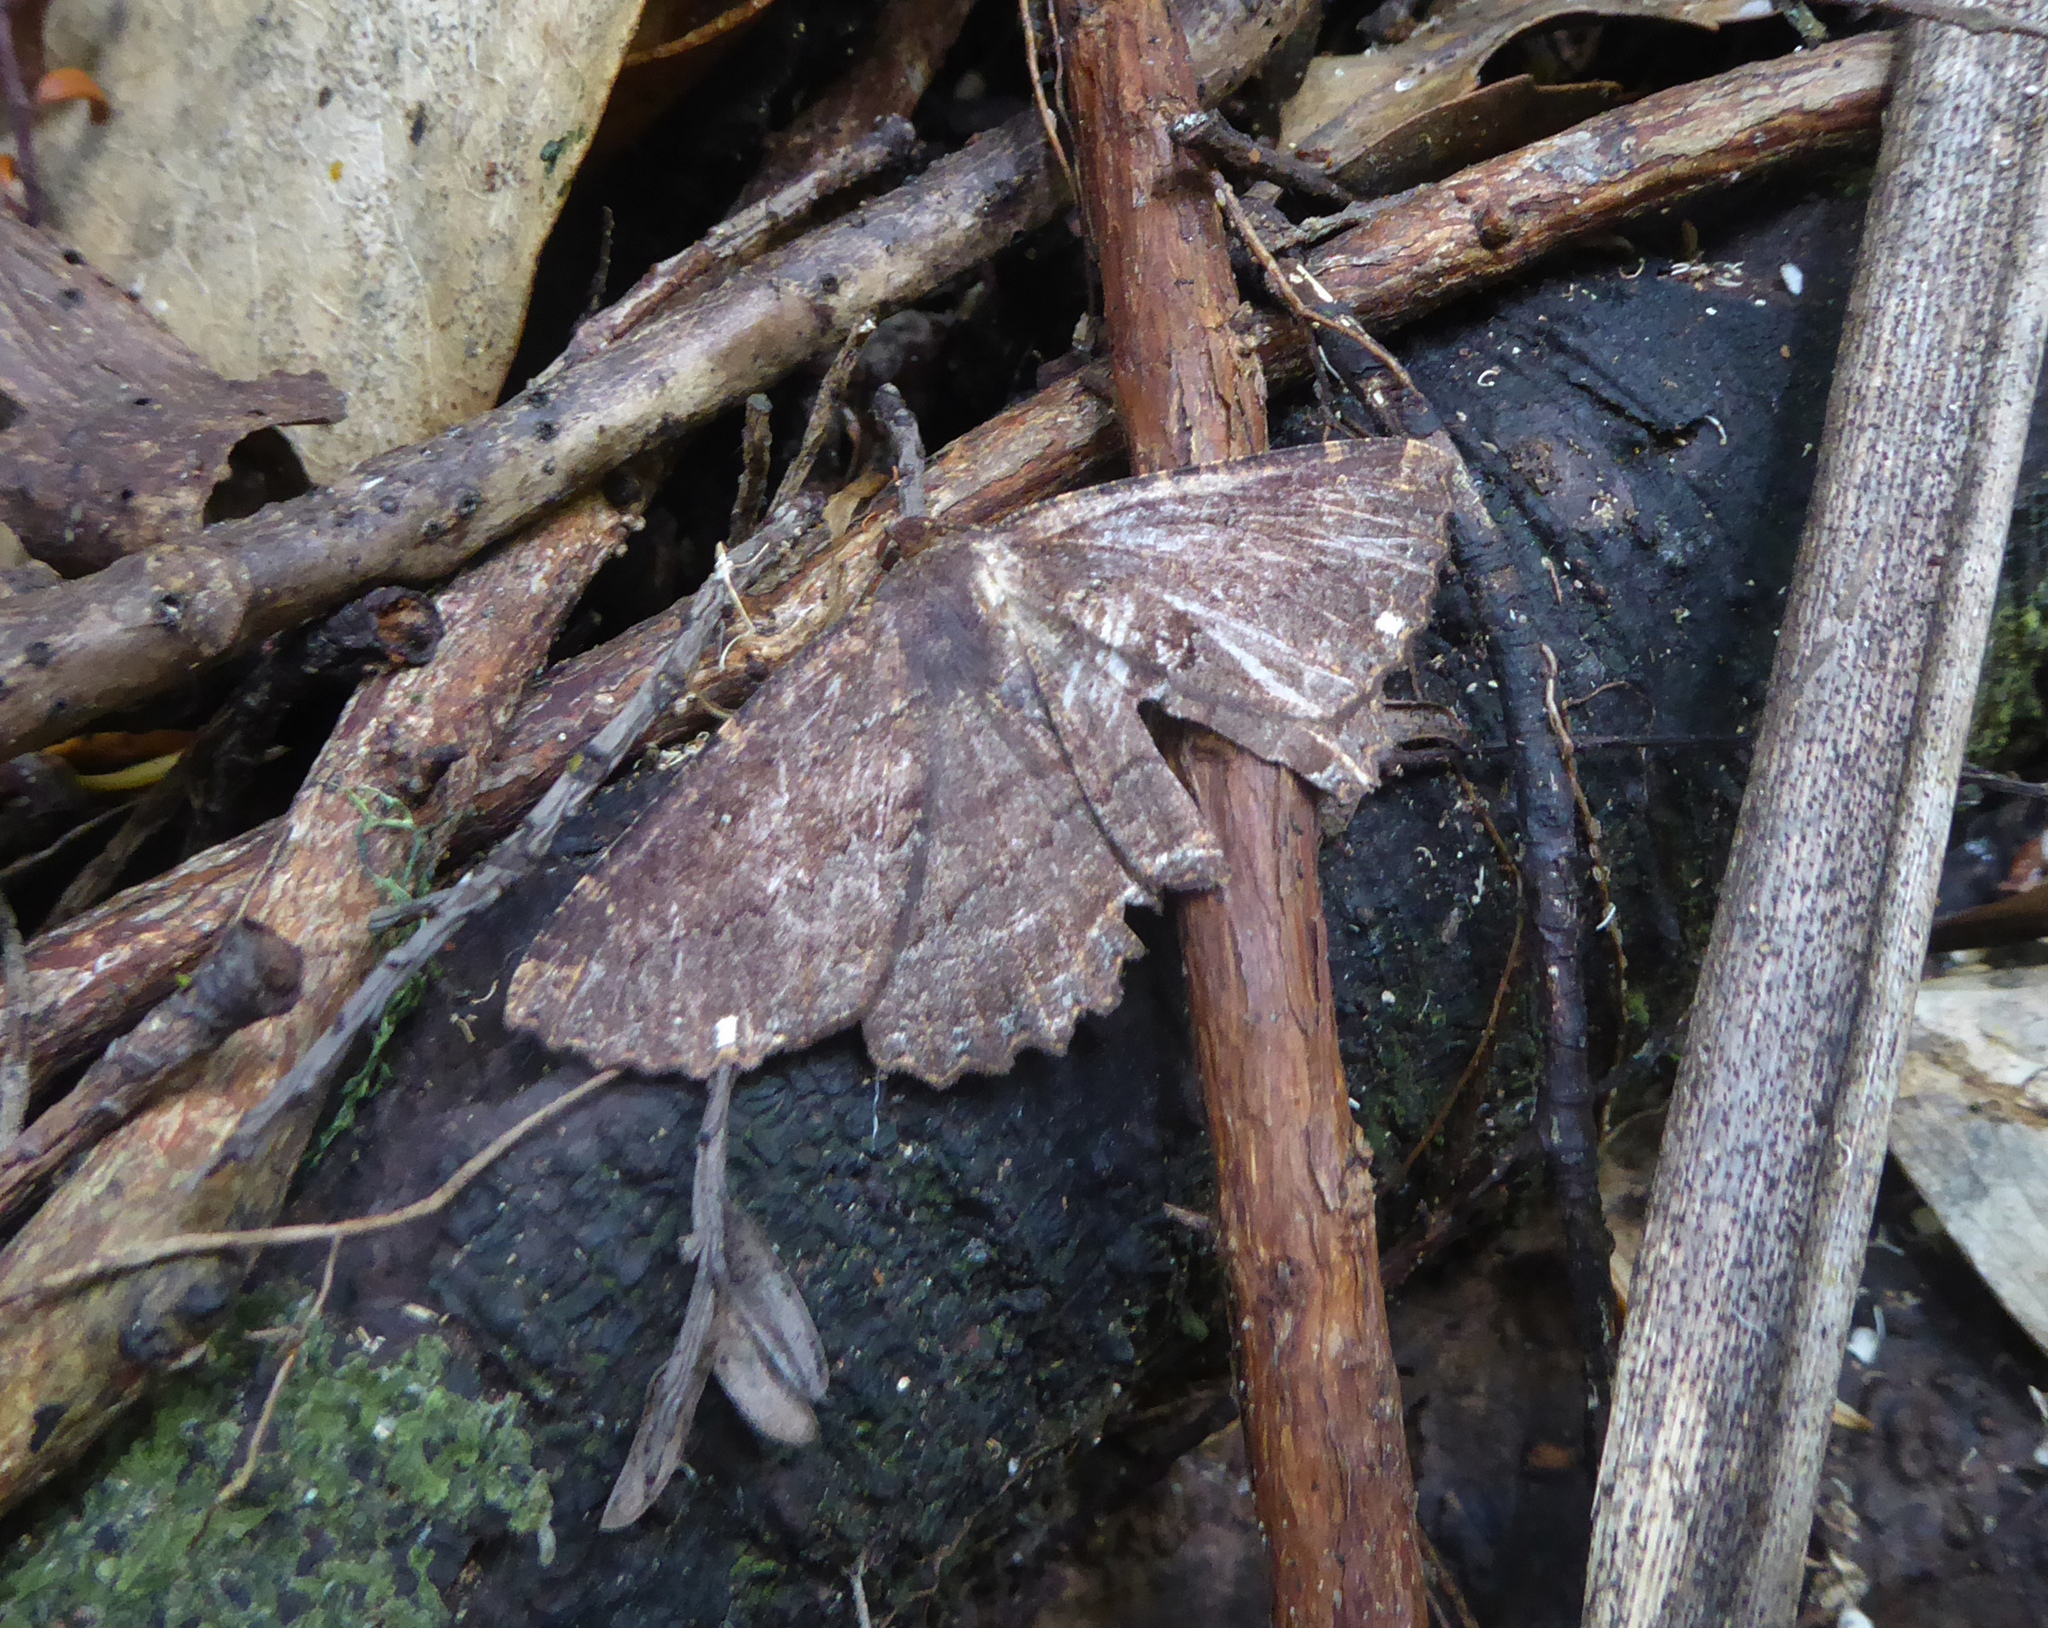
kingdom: Animalia
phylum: Arthropoda
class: Insecta
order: Lepidoptera
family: Geometridae
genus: Gellonia
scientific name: Gellonia dejectaria
